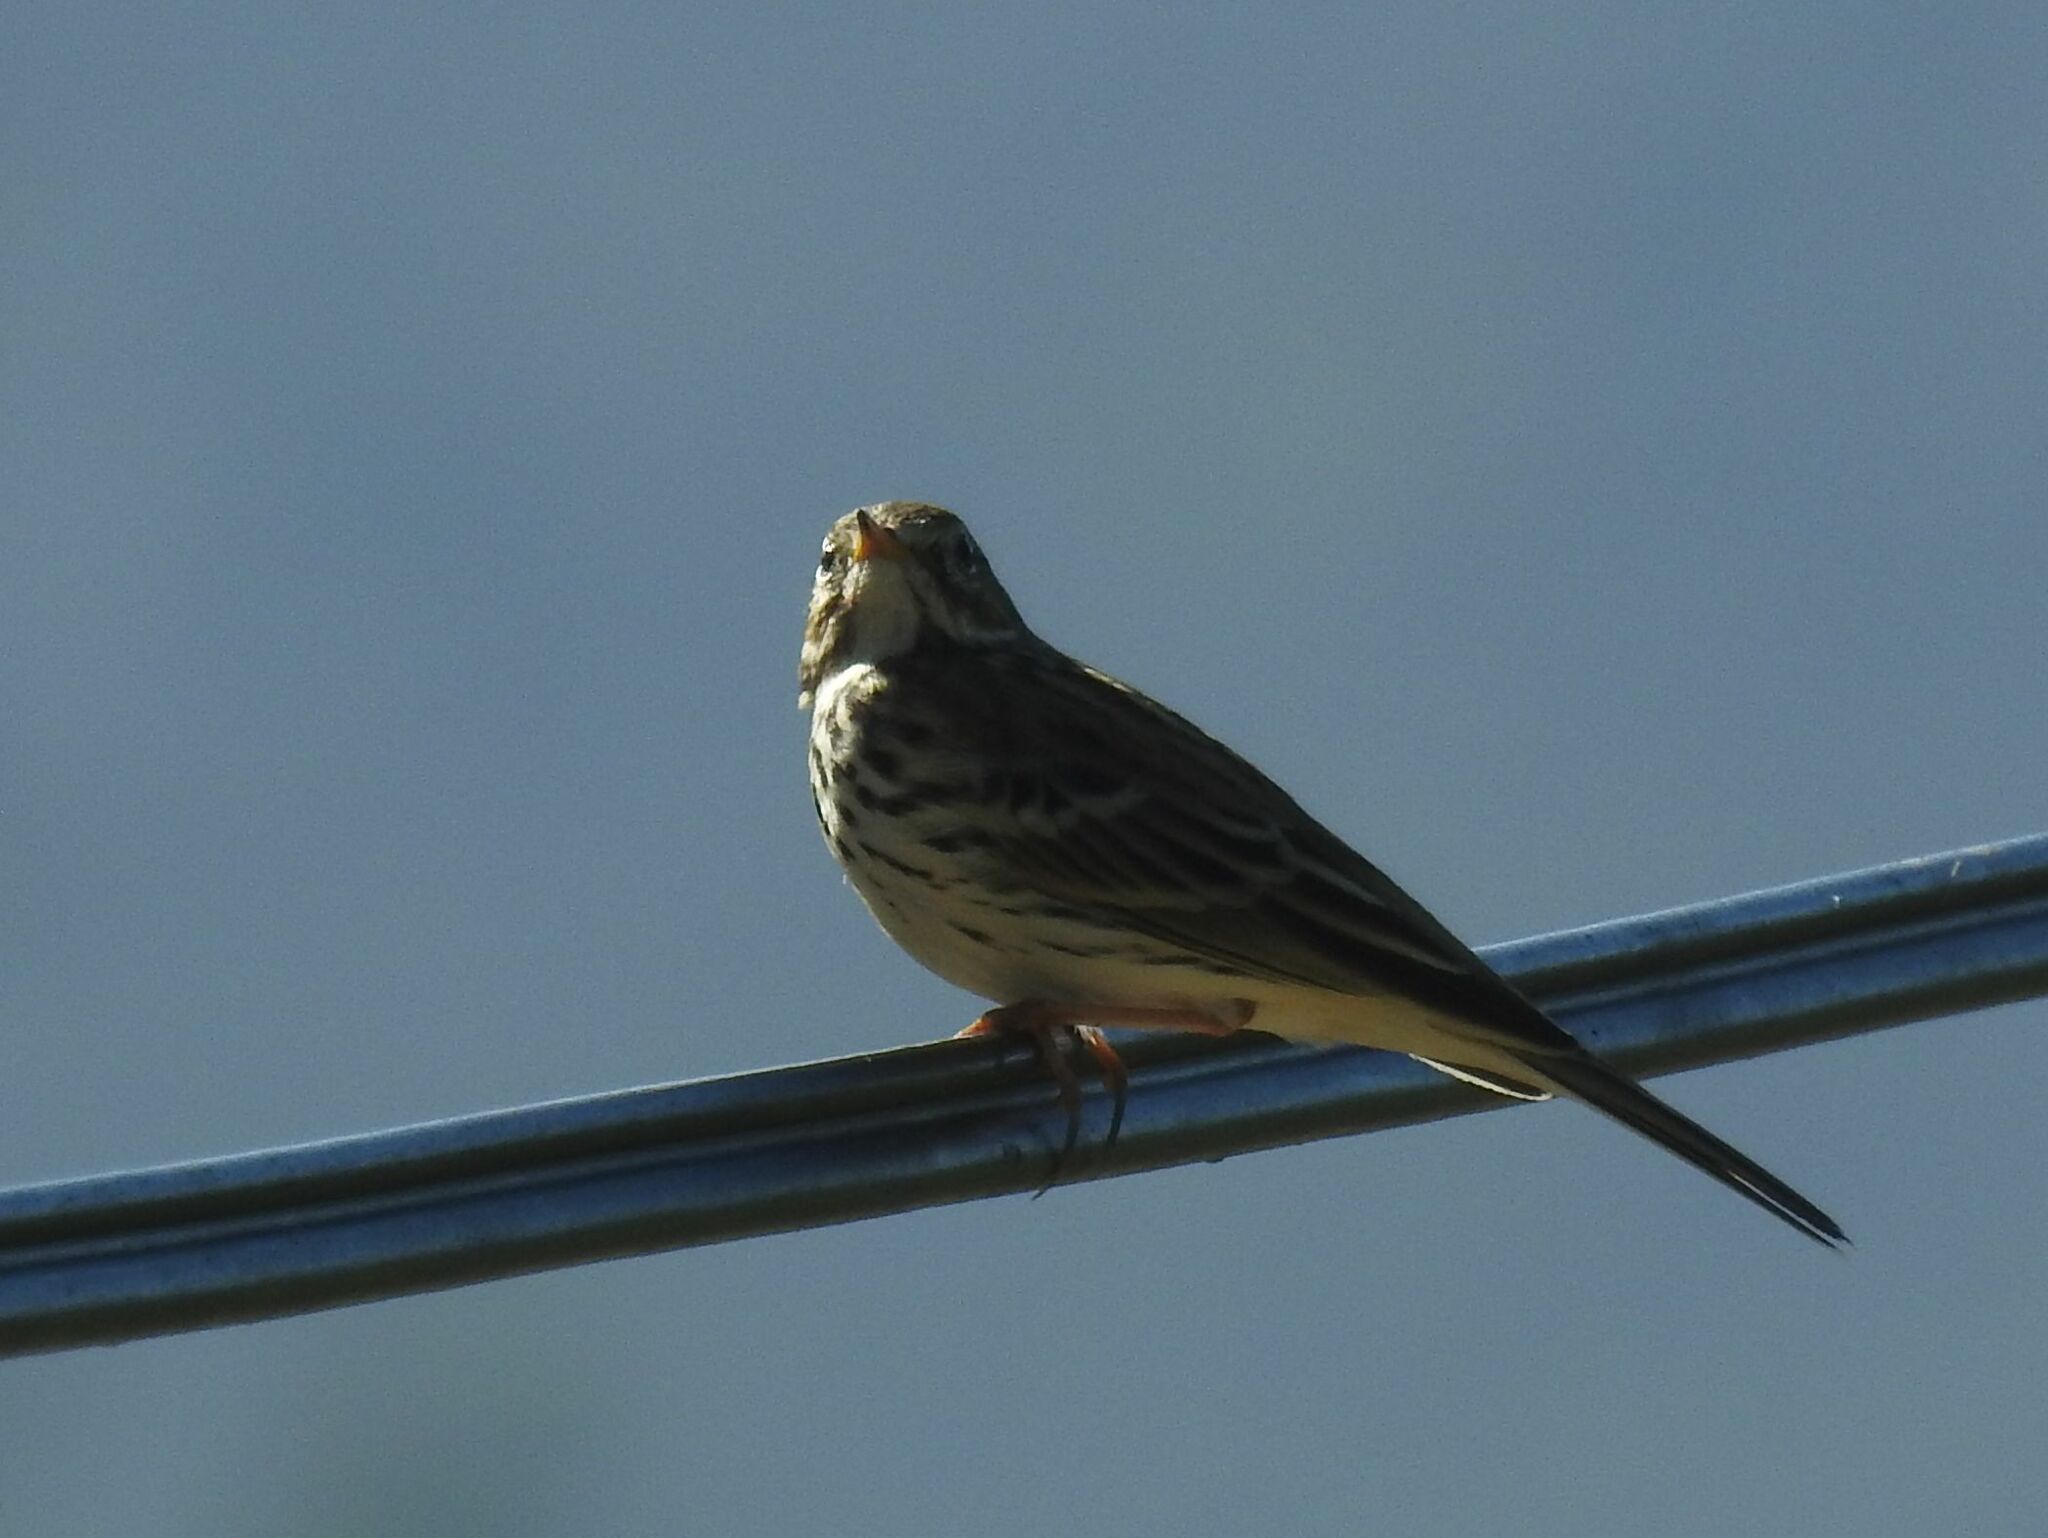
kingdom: Animalia
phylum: Chordata
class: Aves
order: Passeriformes
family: Motacillidae
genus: Anthus
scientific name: Anthus pratensis
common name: Meadow pipit
